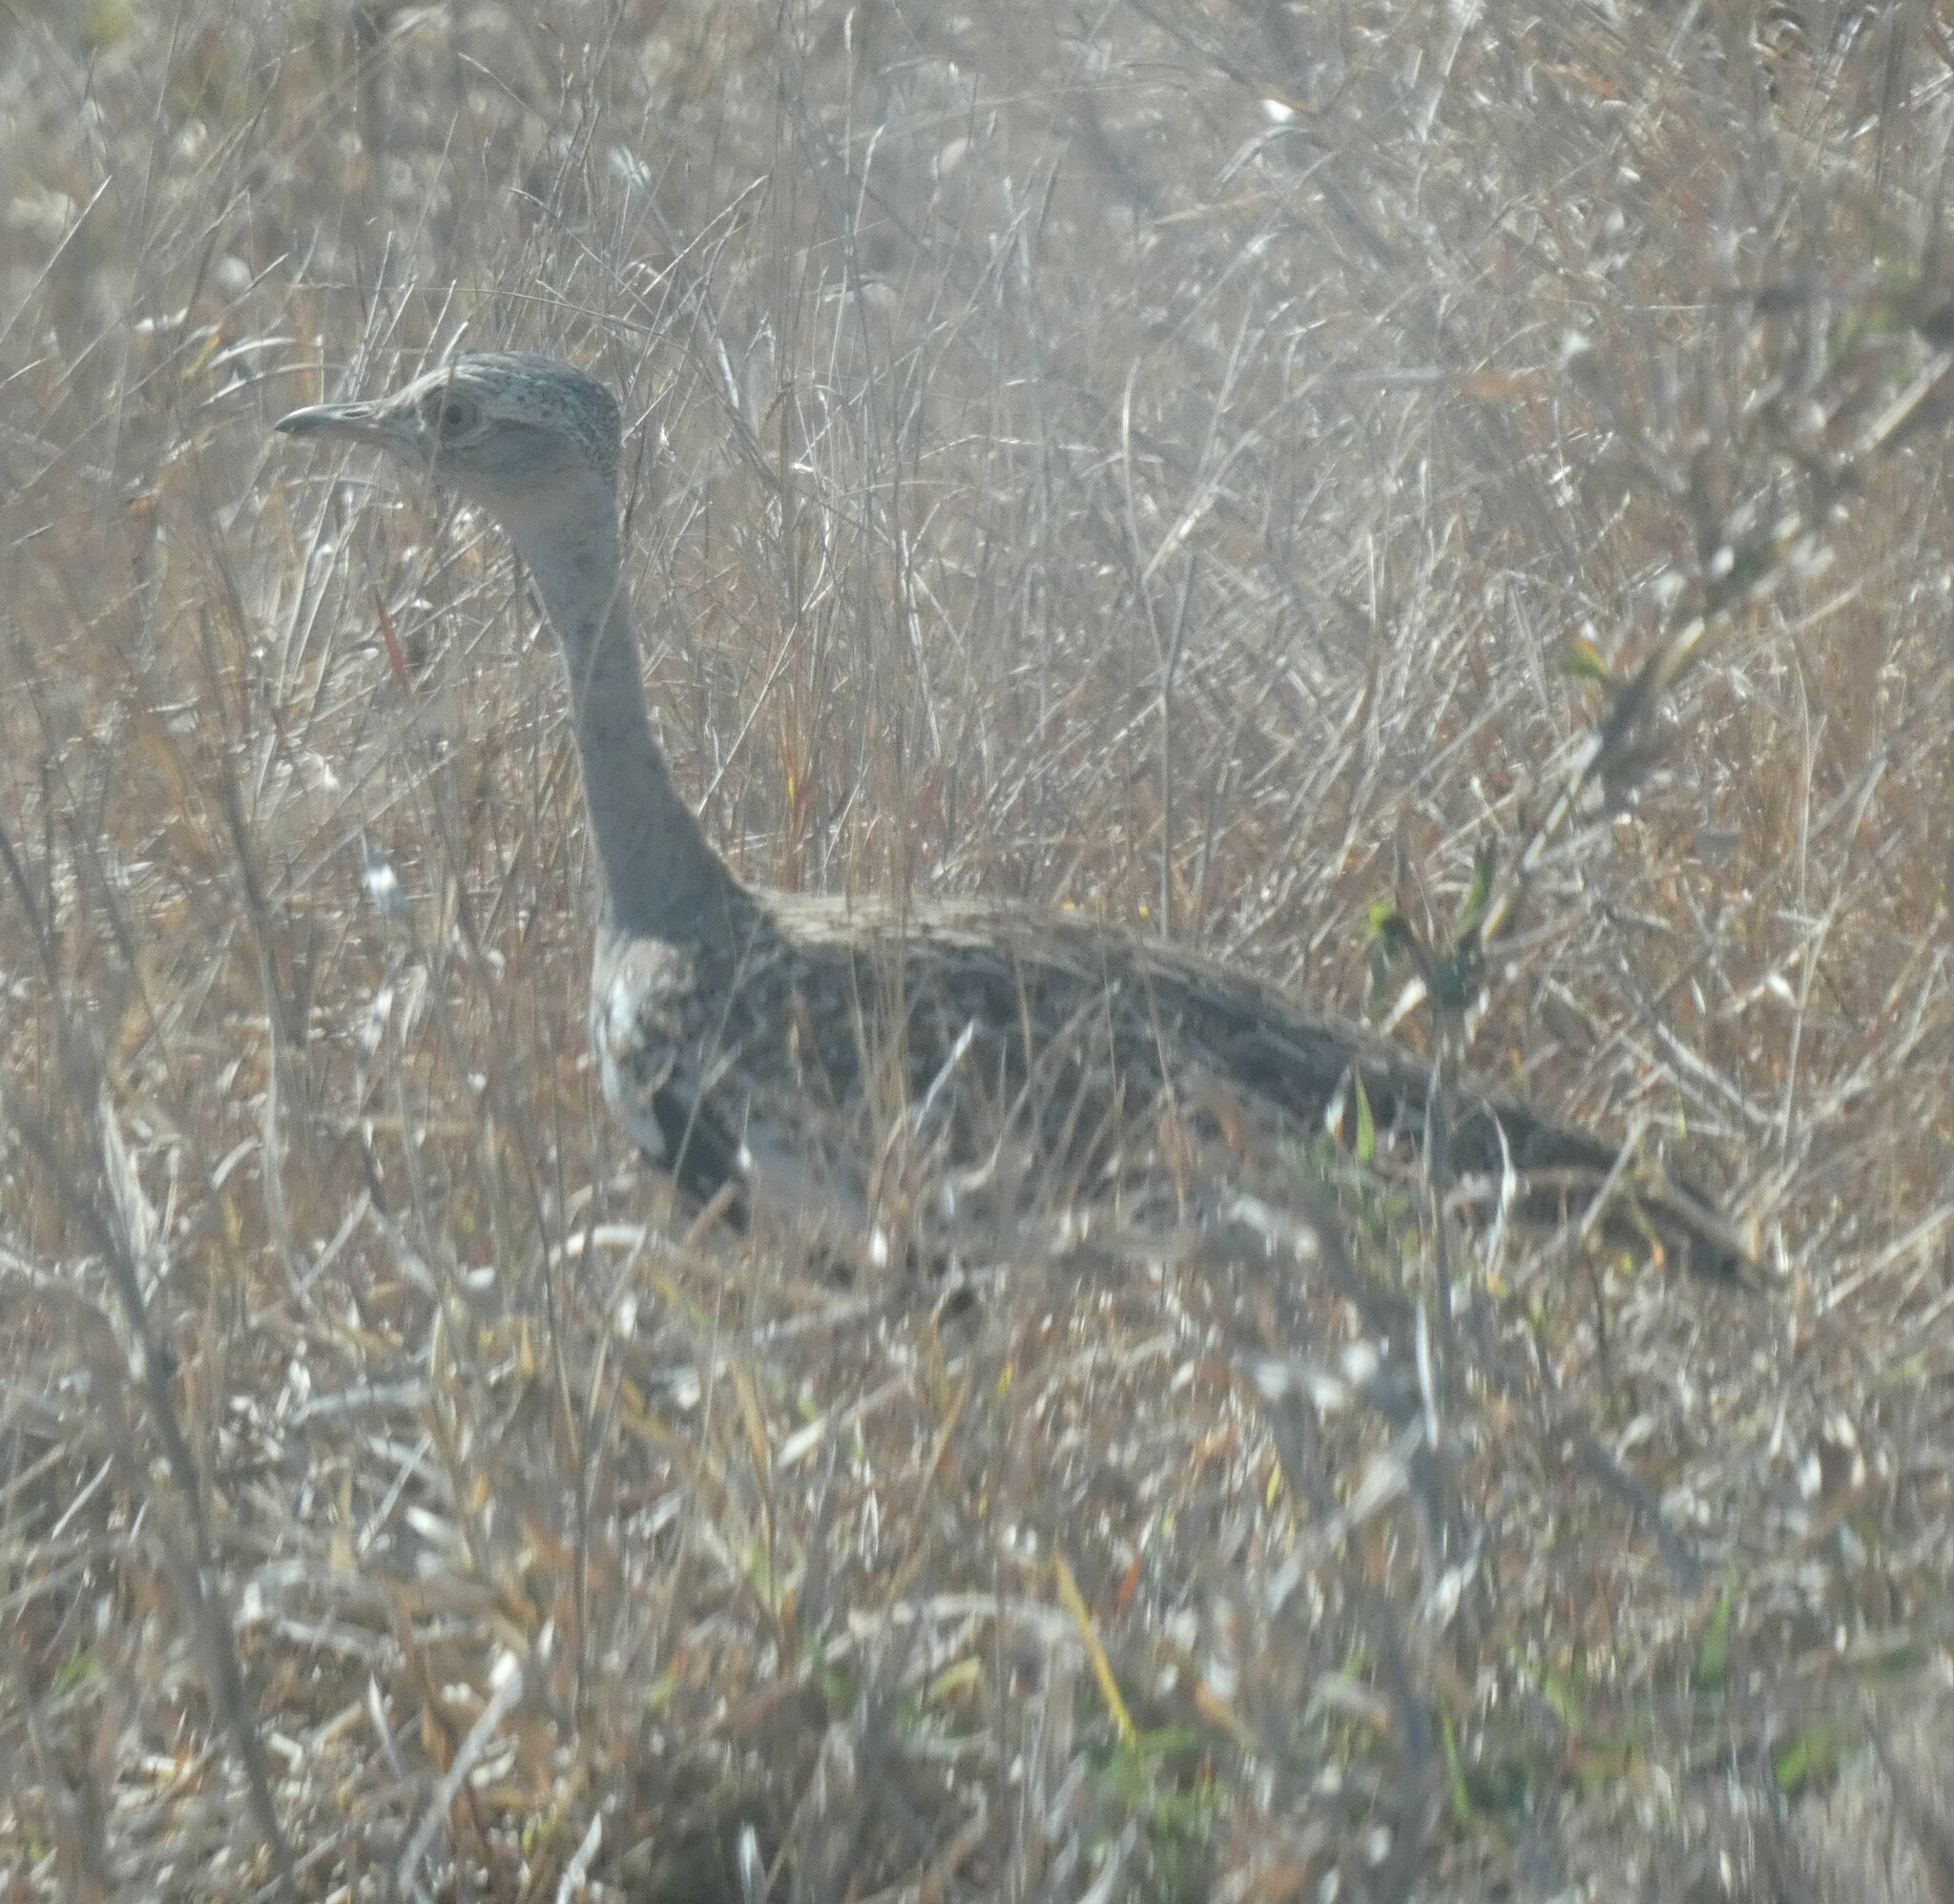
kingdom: Animalia
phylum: Chordata
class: Aves
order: Otidiformes
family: Otididae
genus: Lophotis
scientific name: Lophotis ruficrista
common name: Red-crested korhaan
